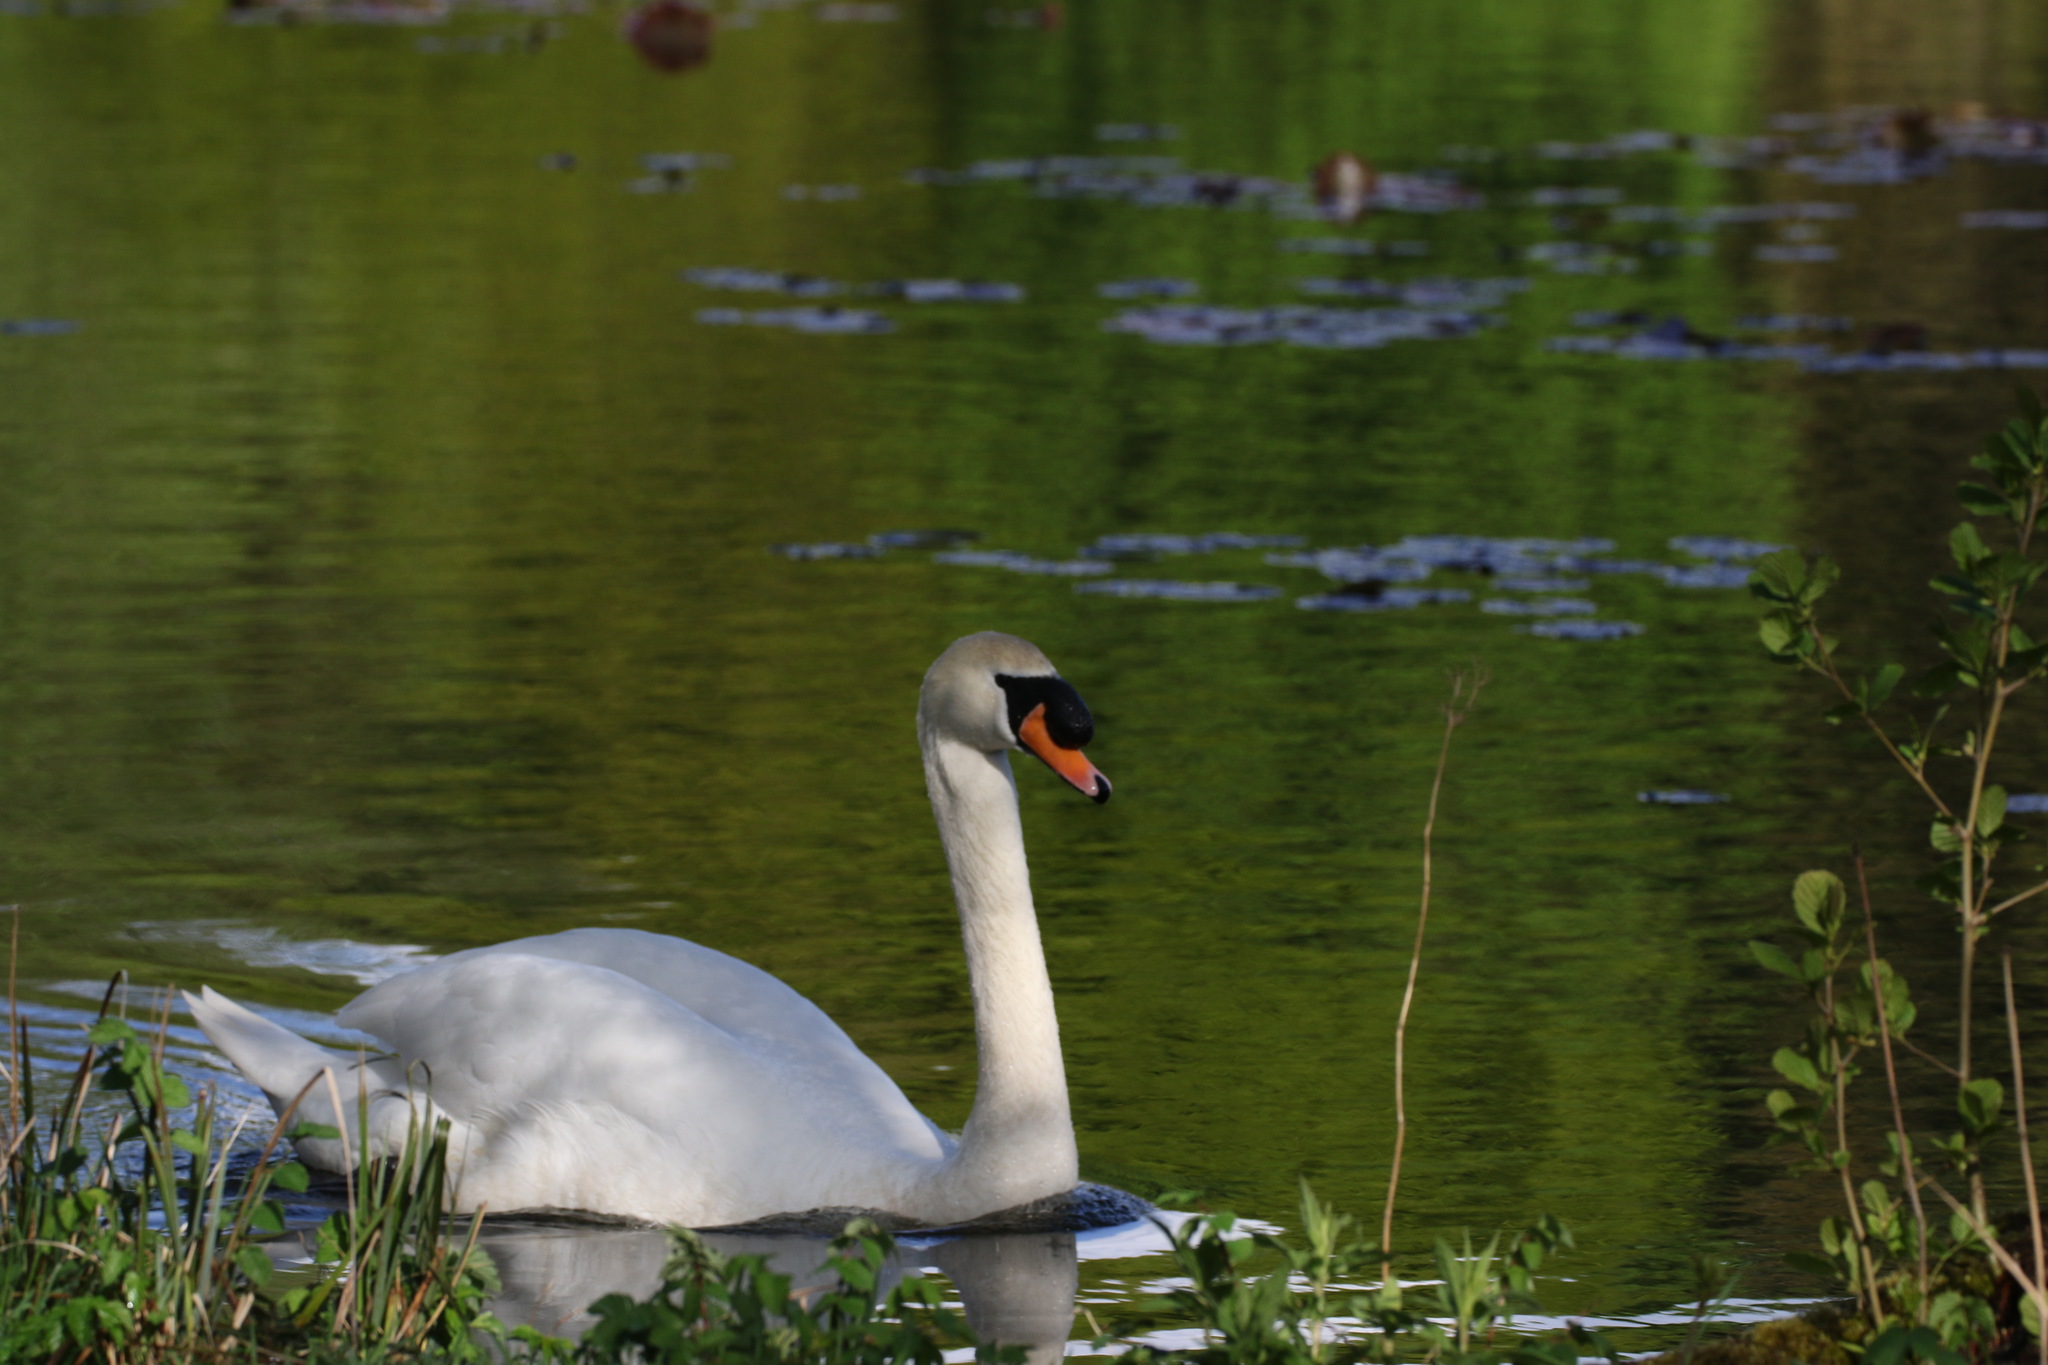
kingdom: Animalia
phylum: Chordata
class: Aves
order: Anseriformes
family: Anatidae
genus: Cygnus
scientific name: Cygnus olor
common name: Mute swan
